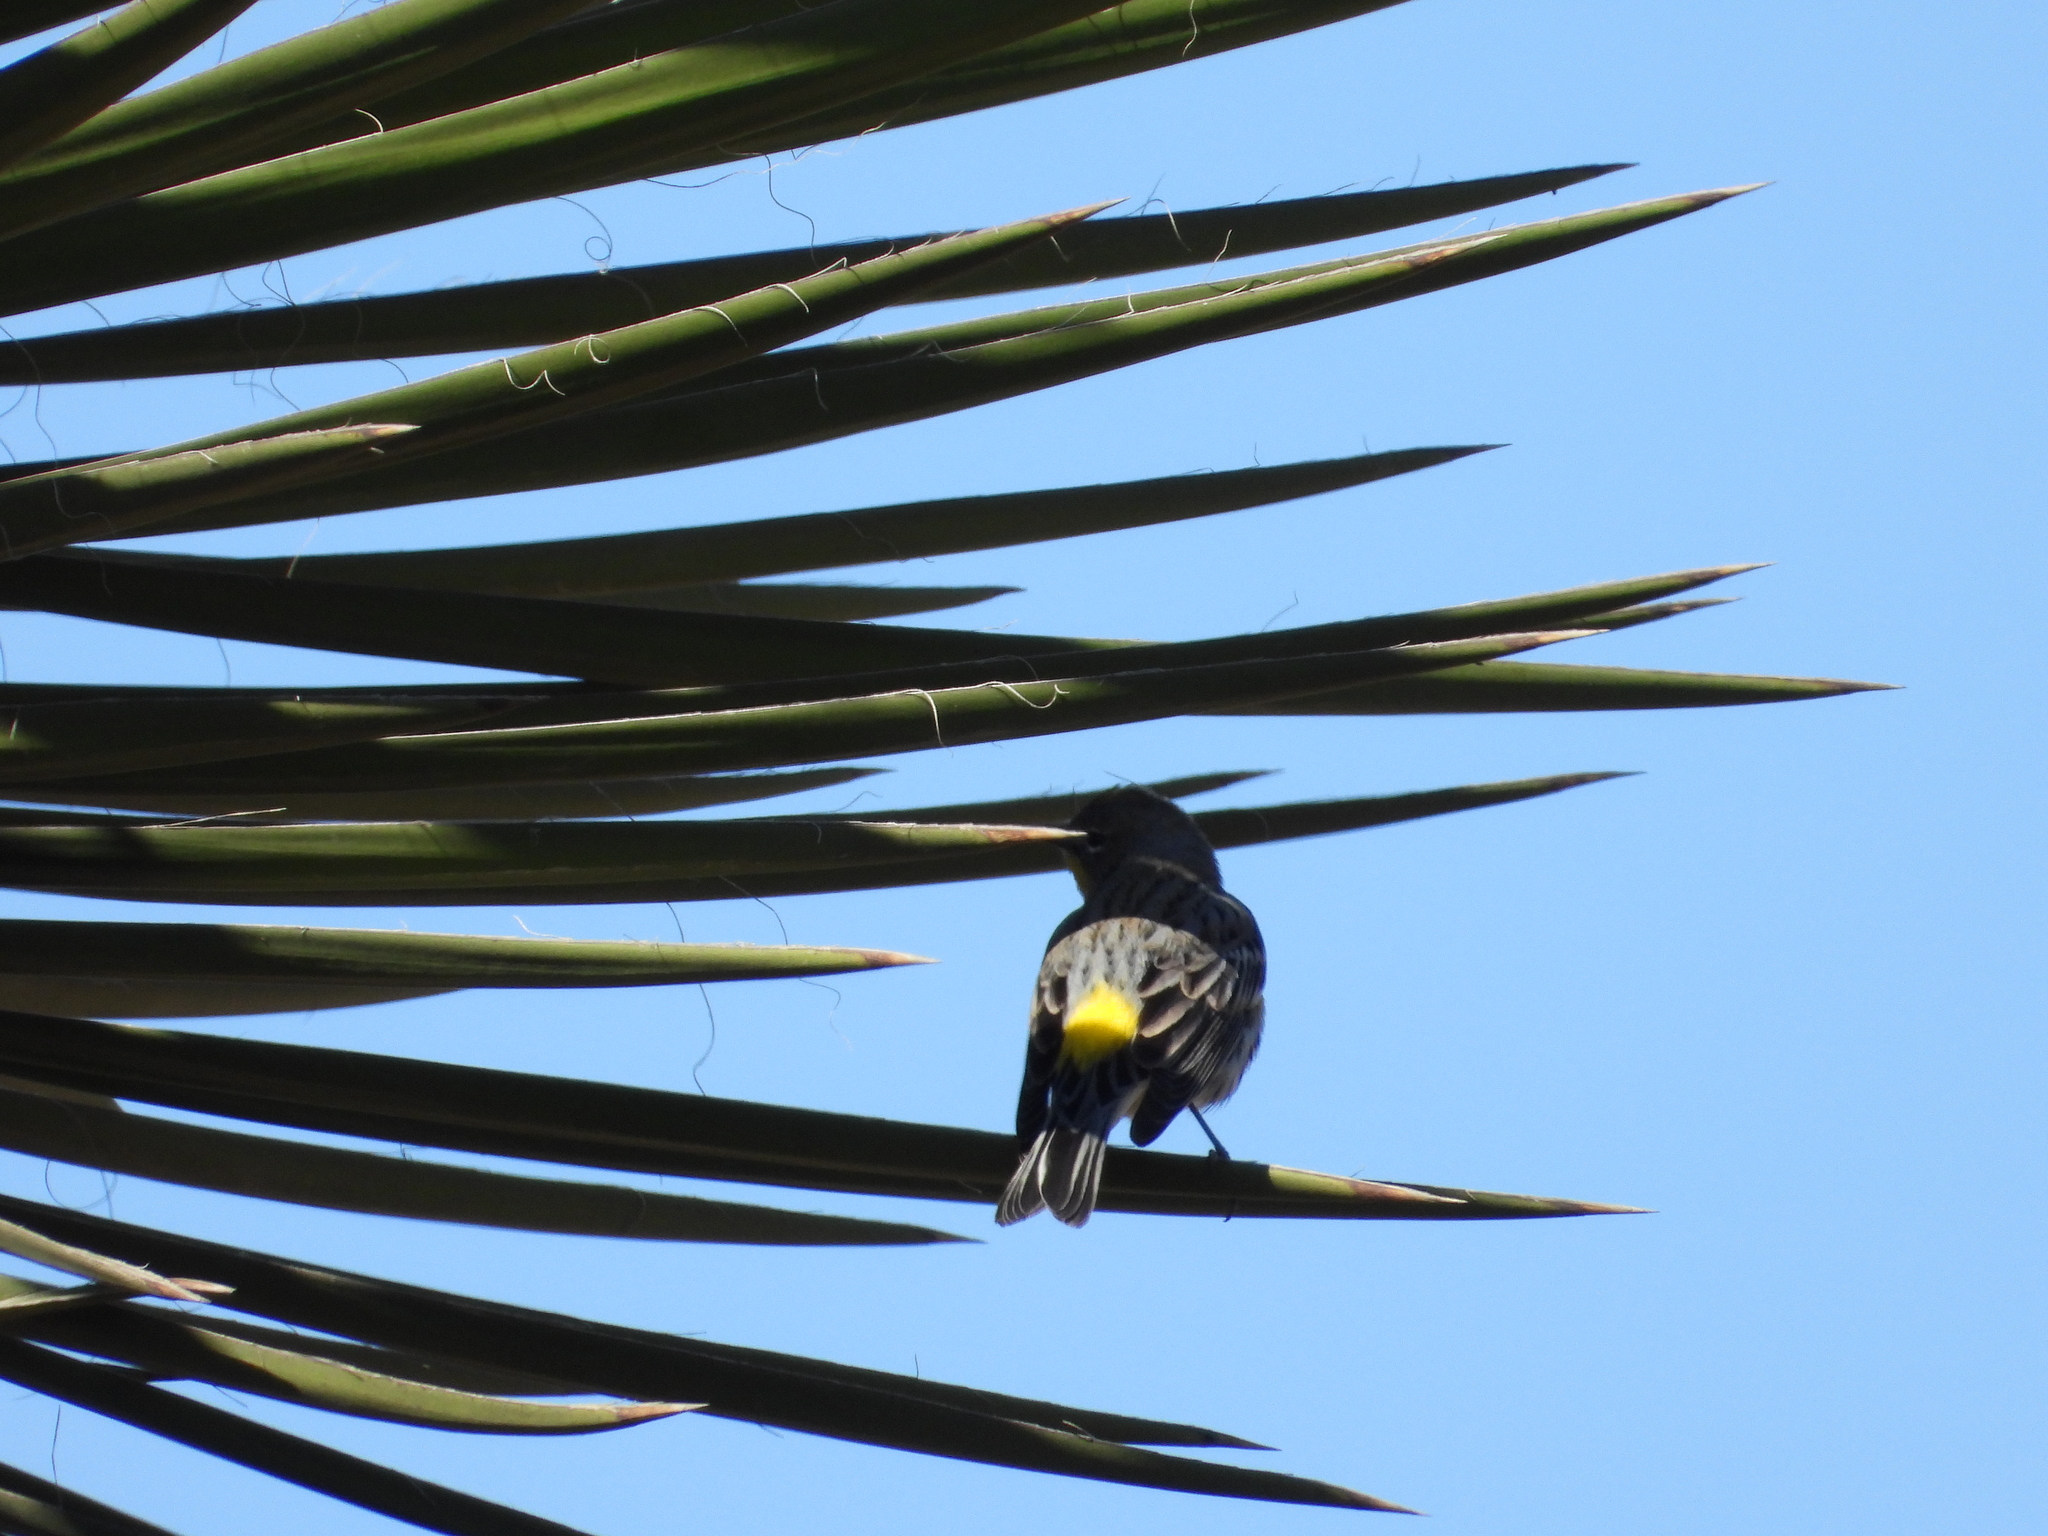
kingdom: Animalia
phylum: Chordata
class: Aves
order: Passeriformes
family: Parulidae
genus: Setophaga
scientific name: Setophaga coronata
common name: Myrtle warbler
